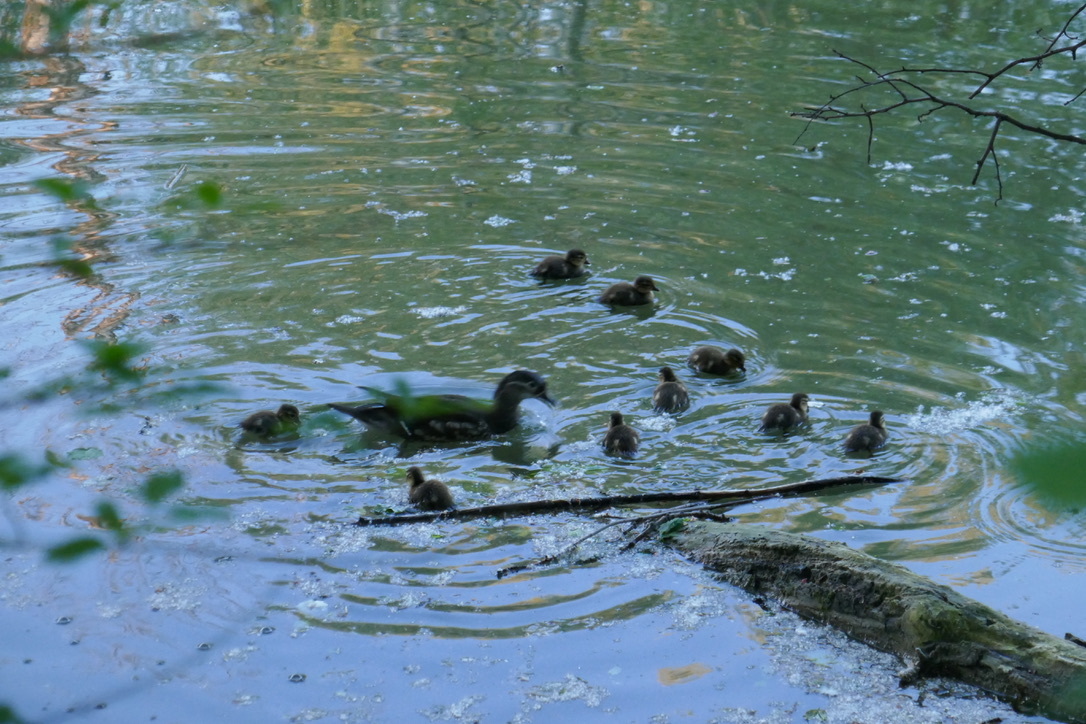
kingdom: Animalia
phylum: Chordata
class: Aves
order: Anseriformes
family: Anatidae
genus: Aix
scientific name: Aix galericulata
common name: Mandarin duck
